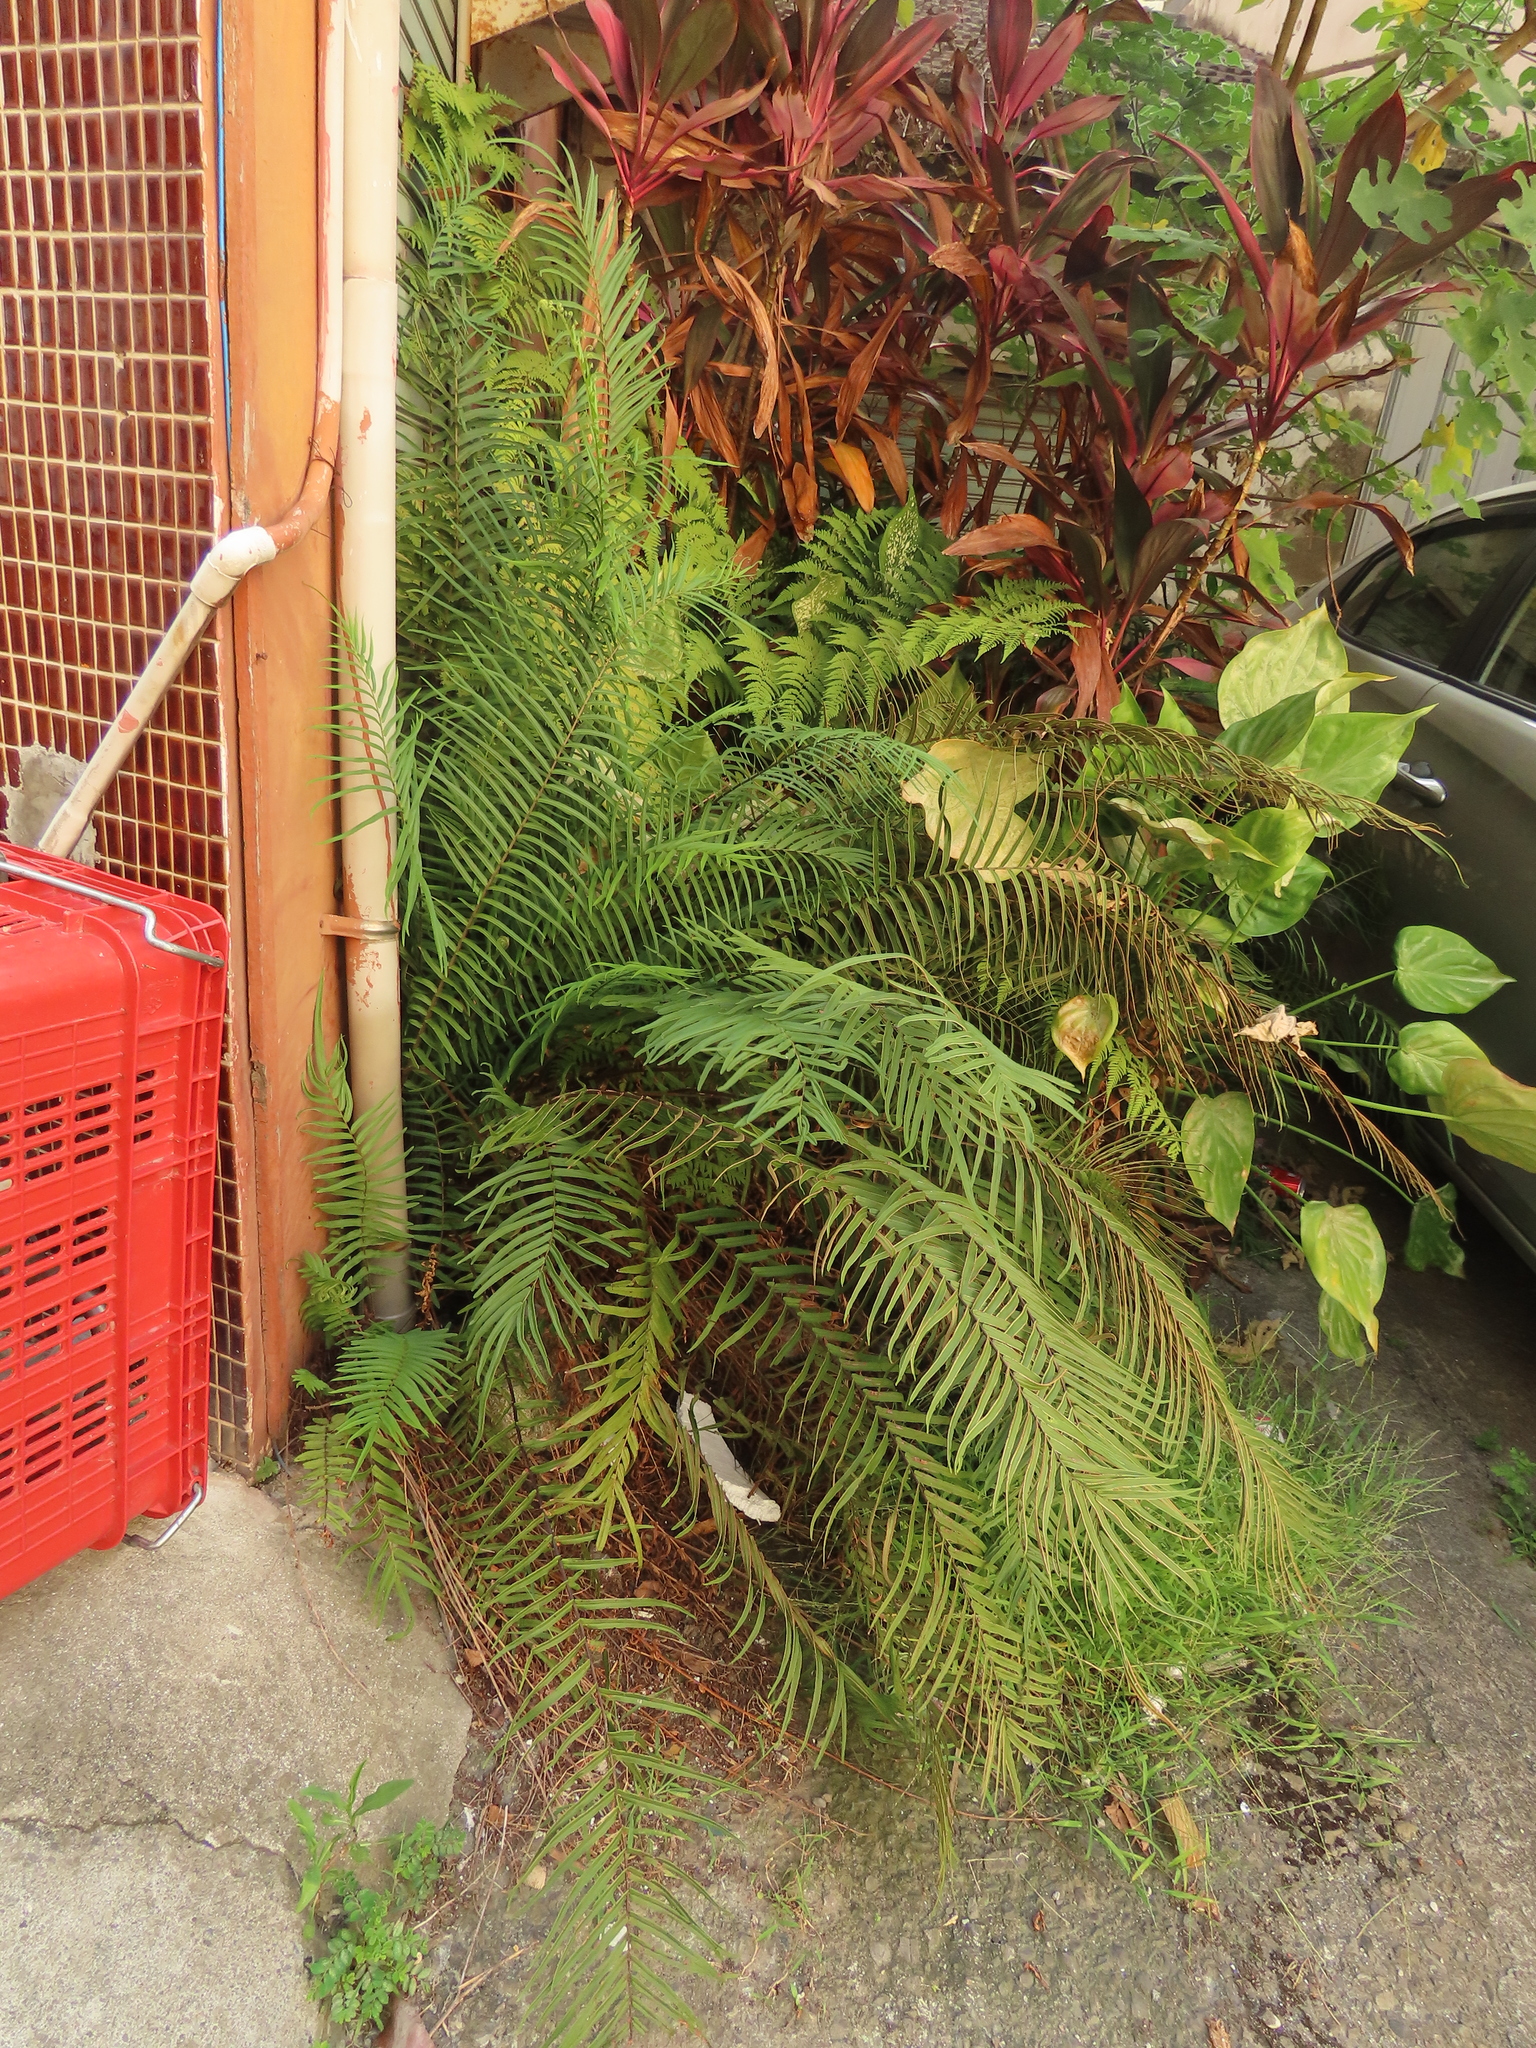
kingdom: Plantae
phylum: Tracheophyta
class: Polypodiopsida
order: Polypodiales
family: Pteridaceae
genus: Pteris
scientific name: Pteris vittata
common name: Ladder brake
